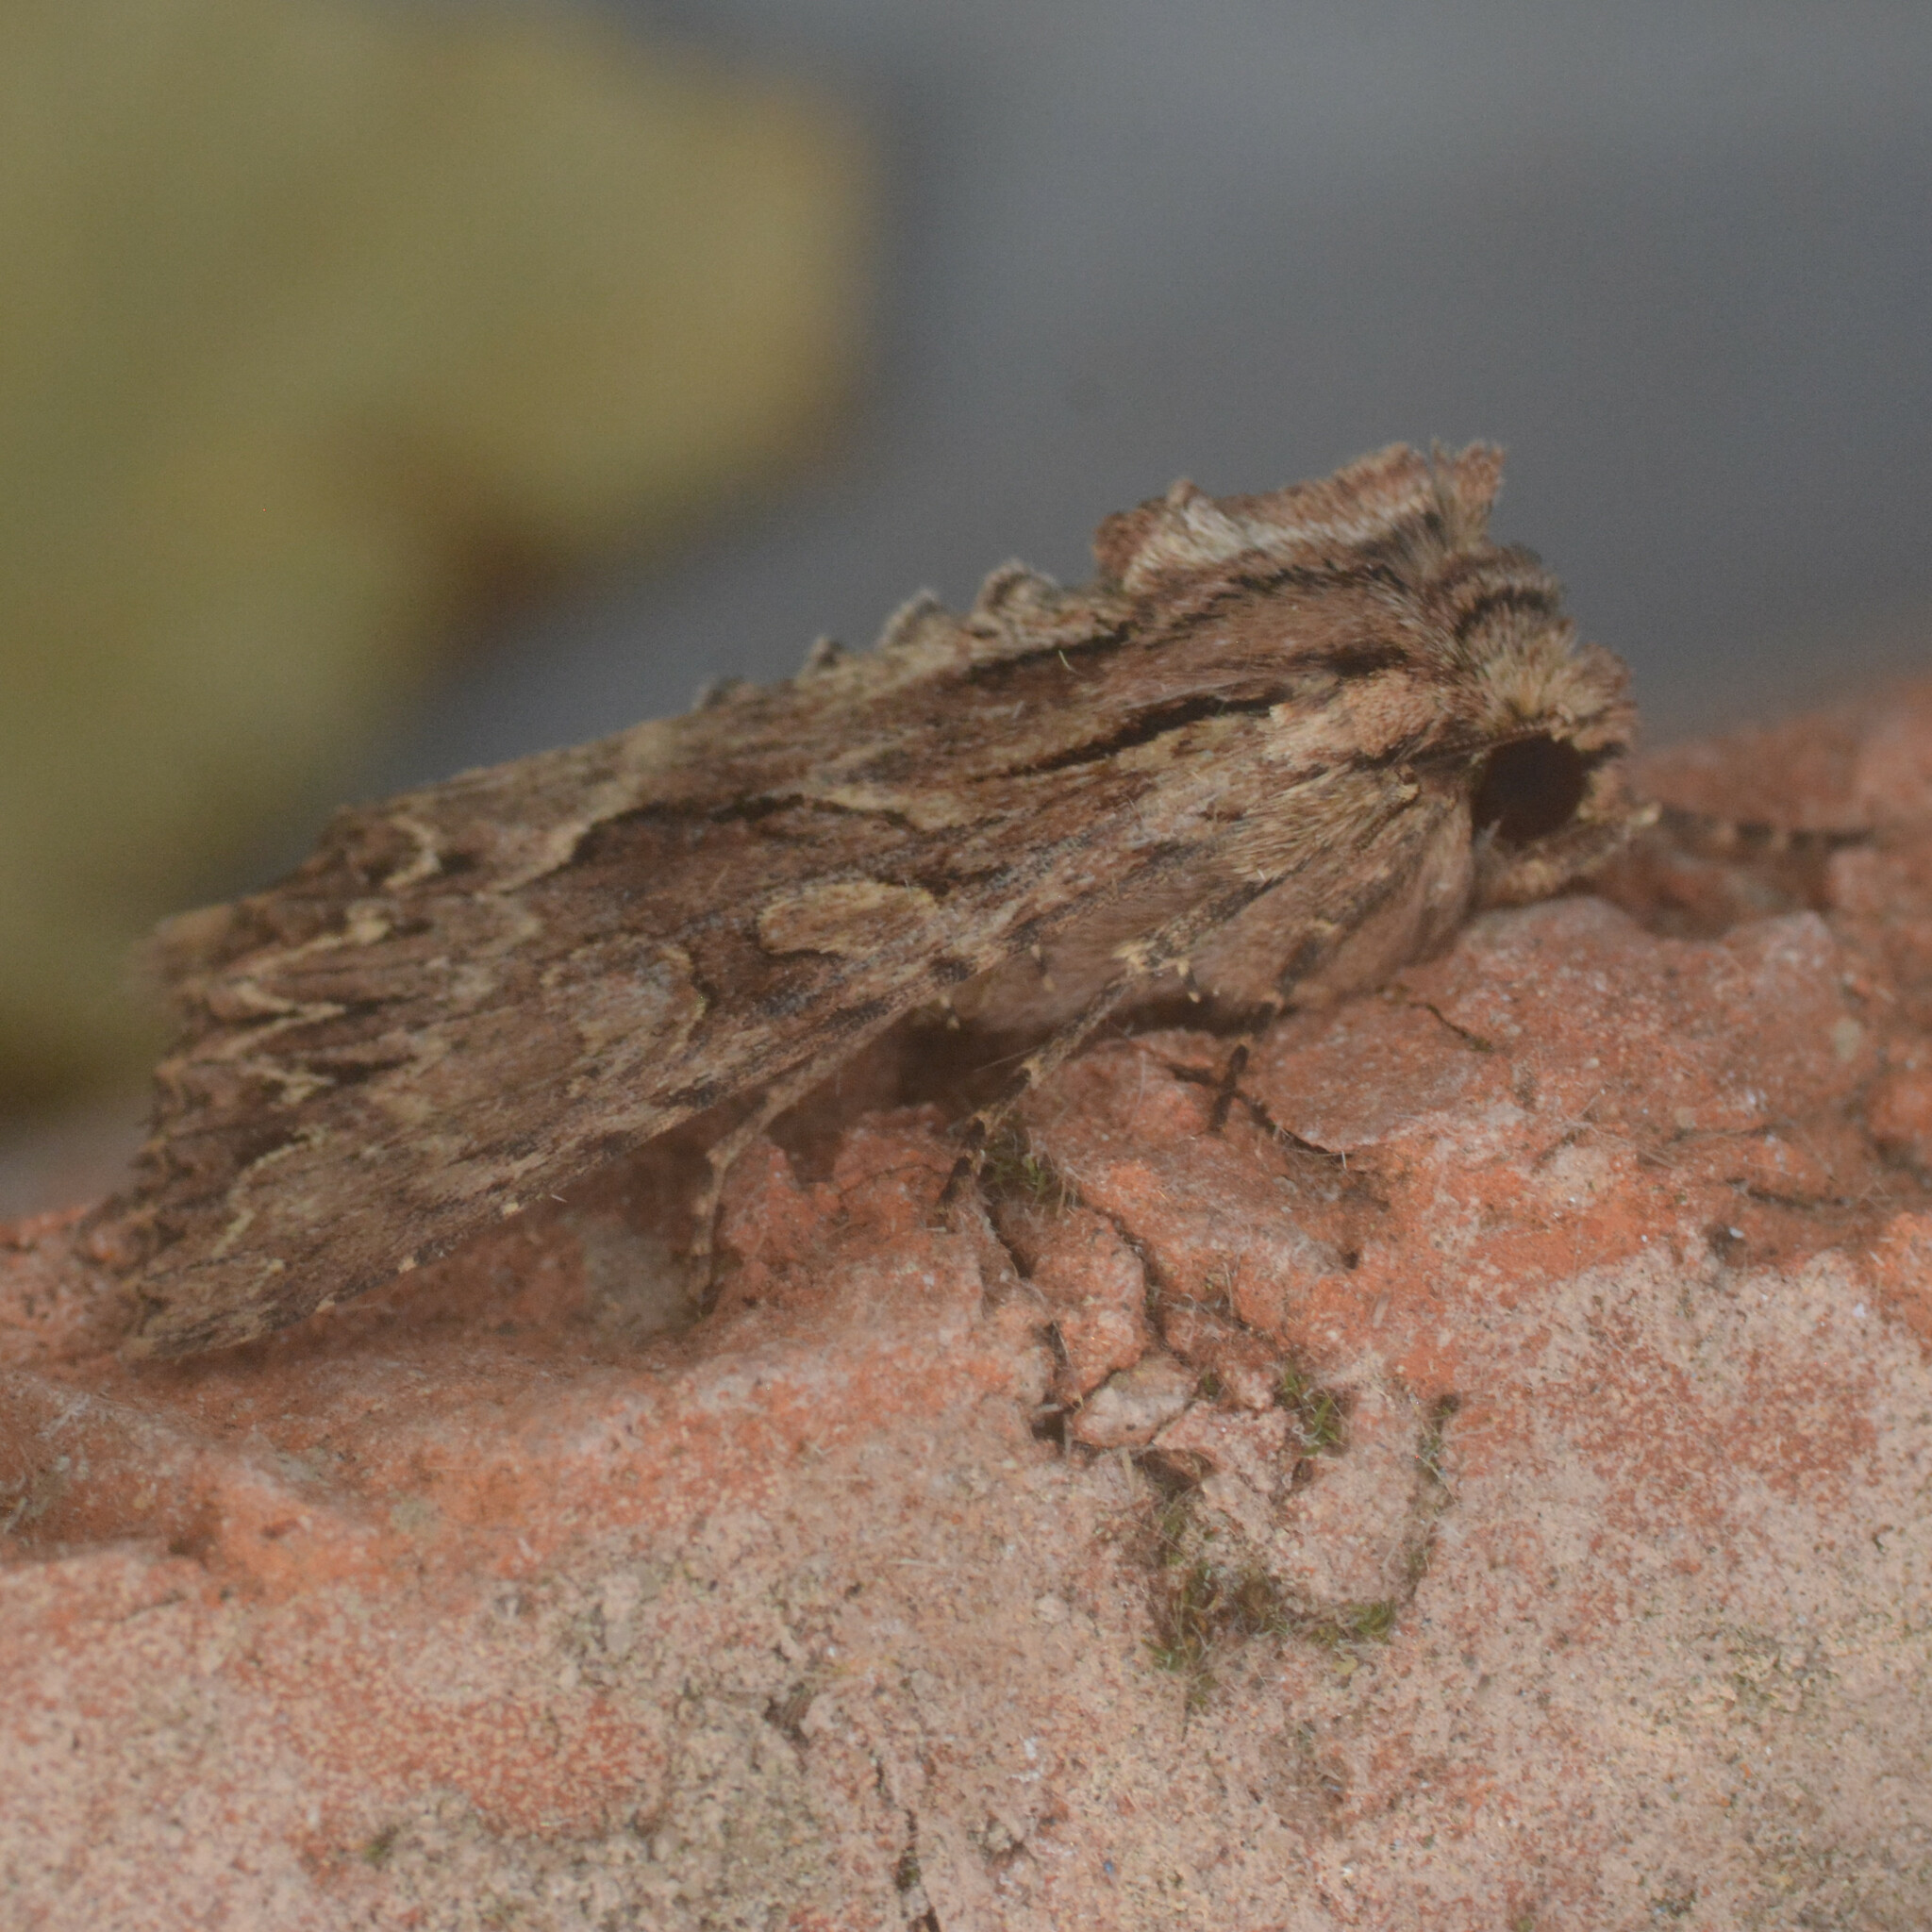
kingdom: Animalia
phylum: Arthropoda
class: Insecta
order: Lepidoptera
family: Noctuidae
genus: Apamea
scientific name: Apamea monoglypha
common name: Dark arches
